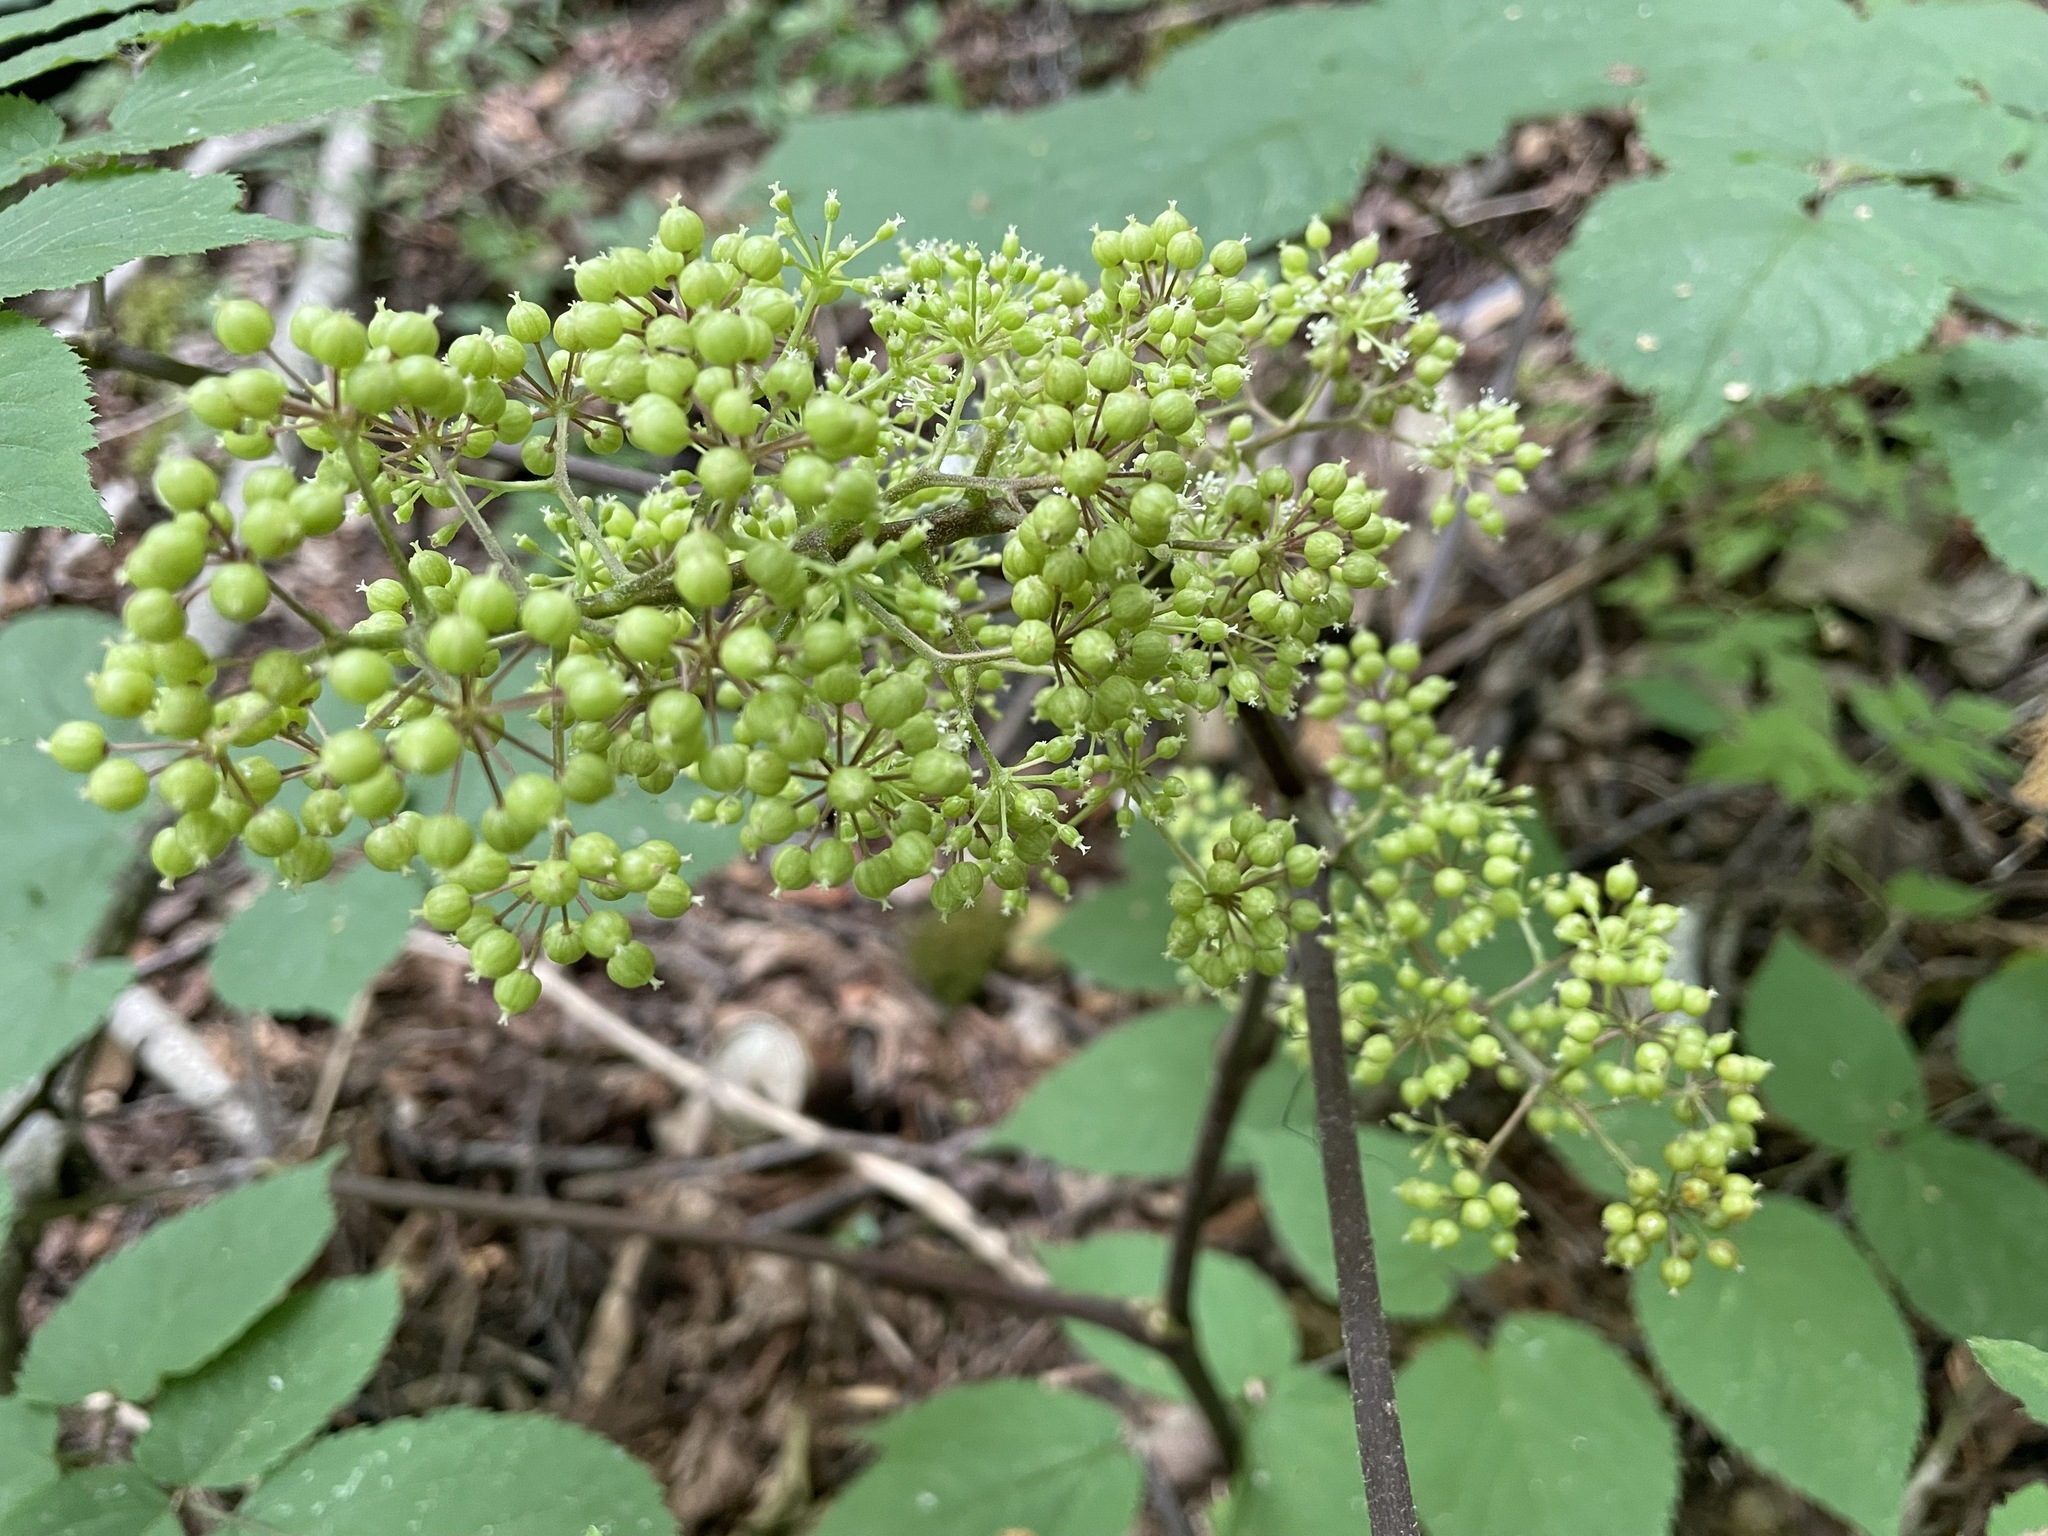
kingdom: Plantae
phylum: Tracheophyta
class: Magnoliopsida
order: Apiales
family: Araliaceae
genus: Aralia
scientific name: Aralia racemosa
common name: American-spikenard
